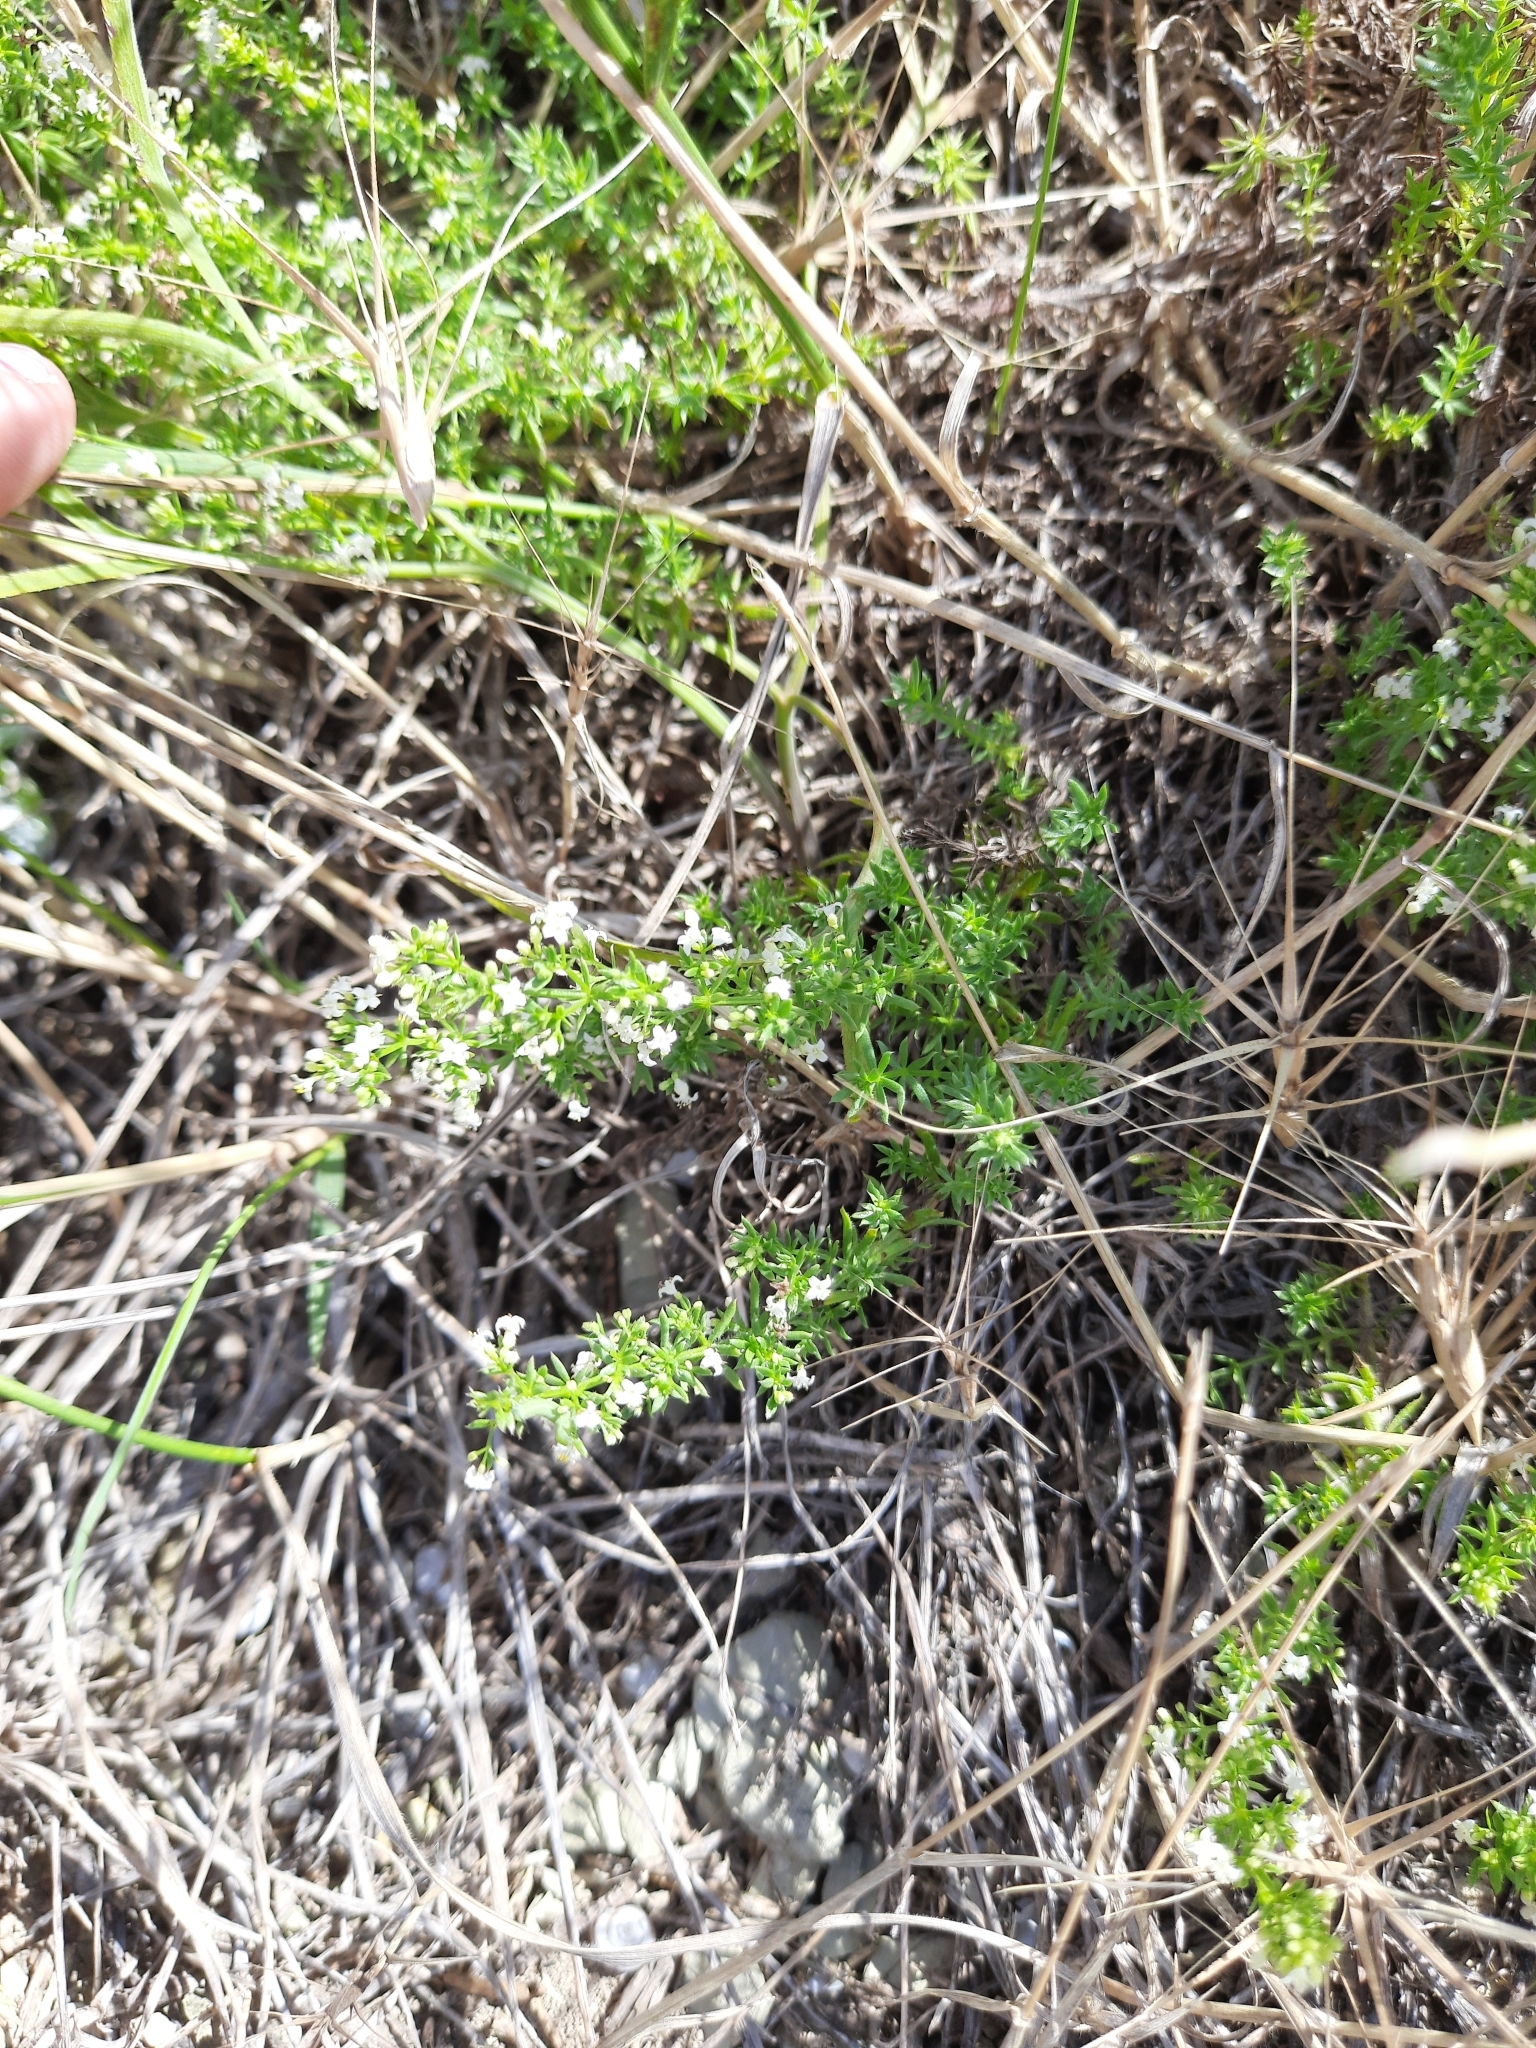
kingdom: Plantae
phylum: Tracheophyta
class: Magnoliopsida
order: Gentianales
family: Rubiaceae
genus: Galium
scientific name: Galium humifusum
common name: Spreading bedstraw
